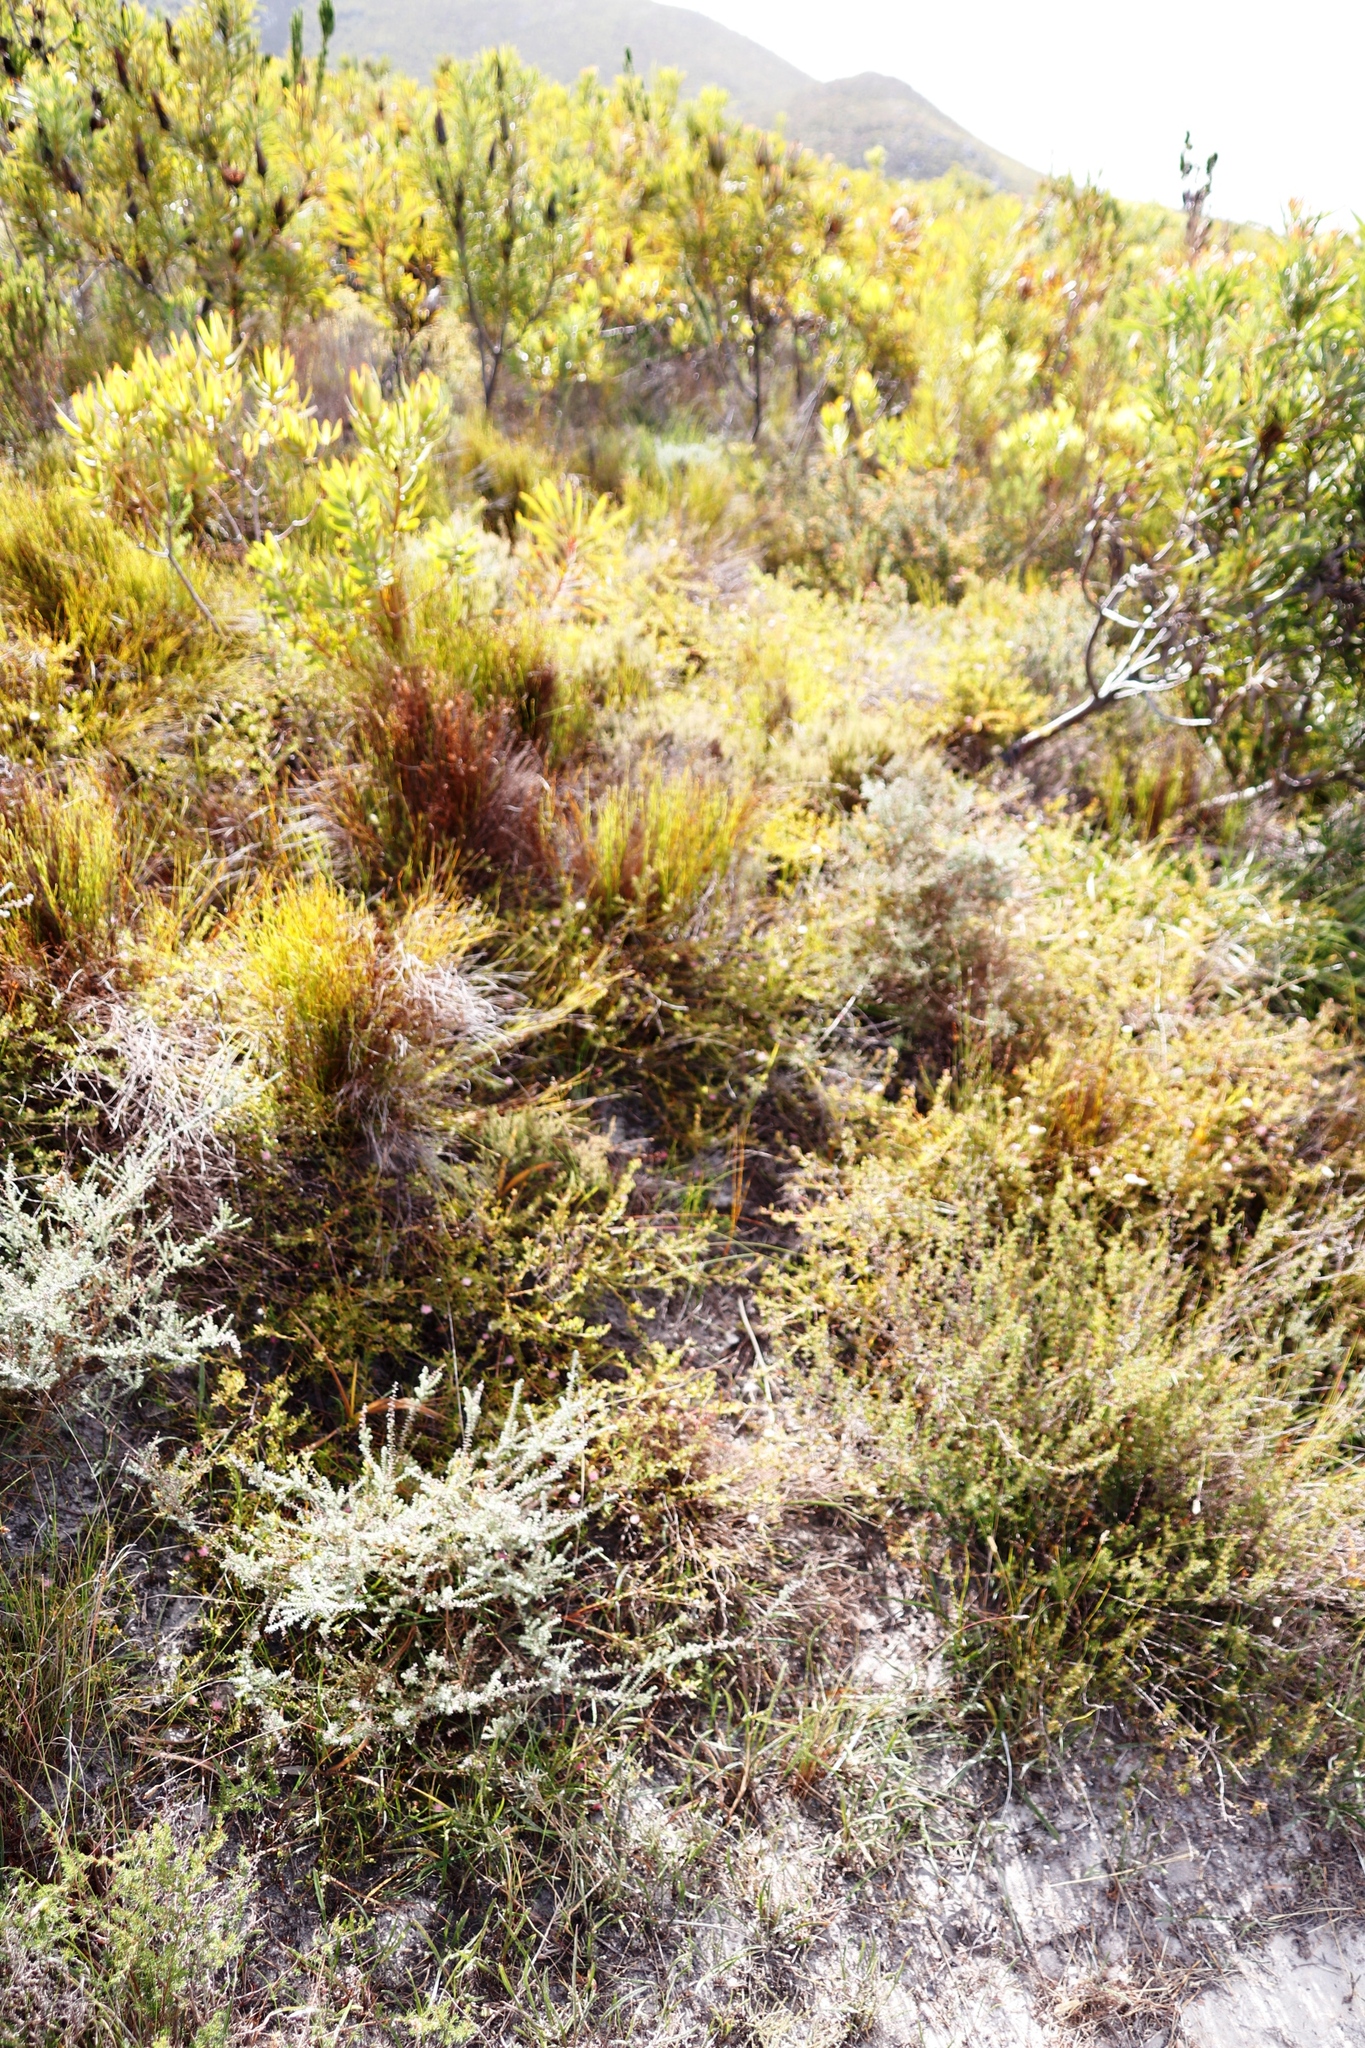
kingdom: Plantae
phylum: Tracheophyta
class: Magnoliopsida
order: Proteales
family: Proteaceae
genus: Diastella
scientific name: Diastella divaricata
